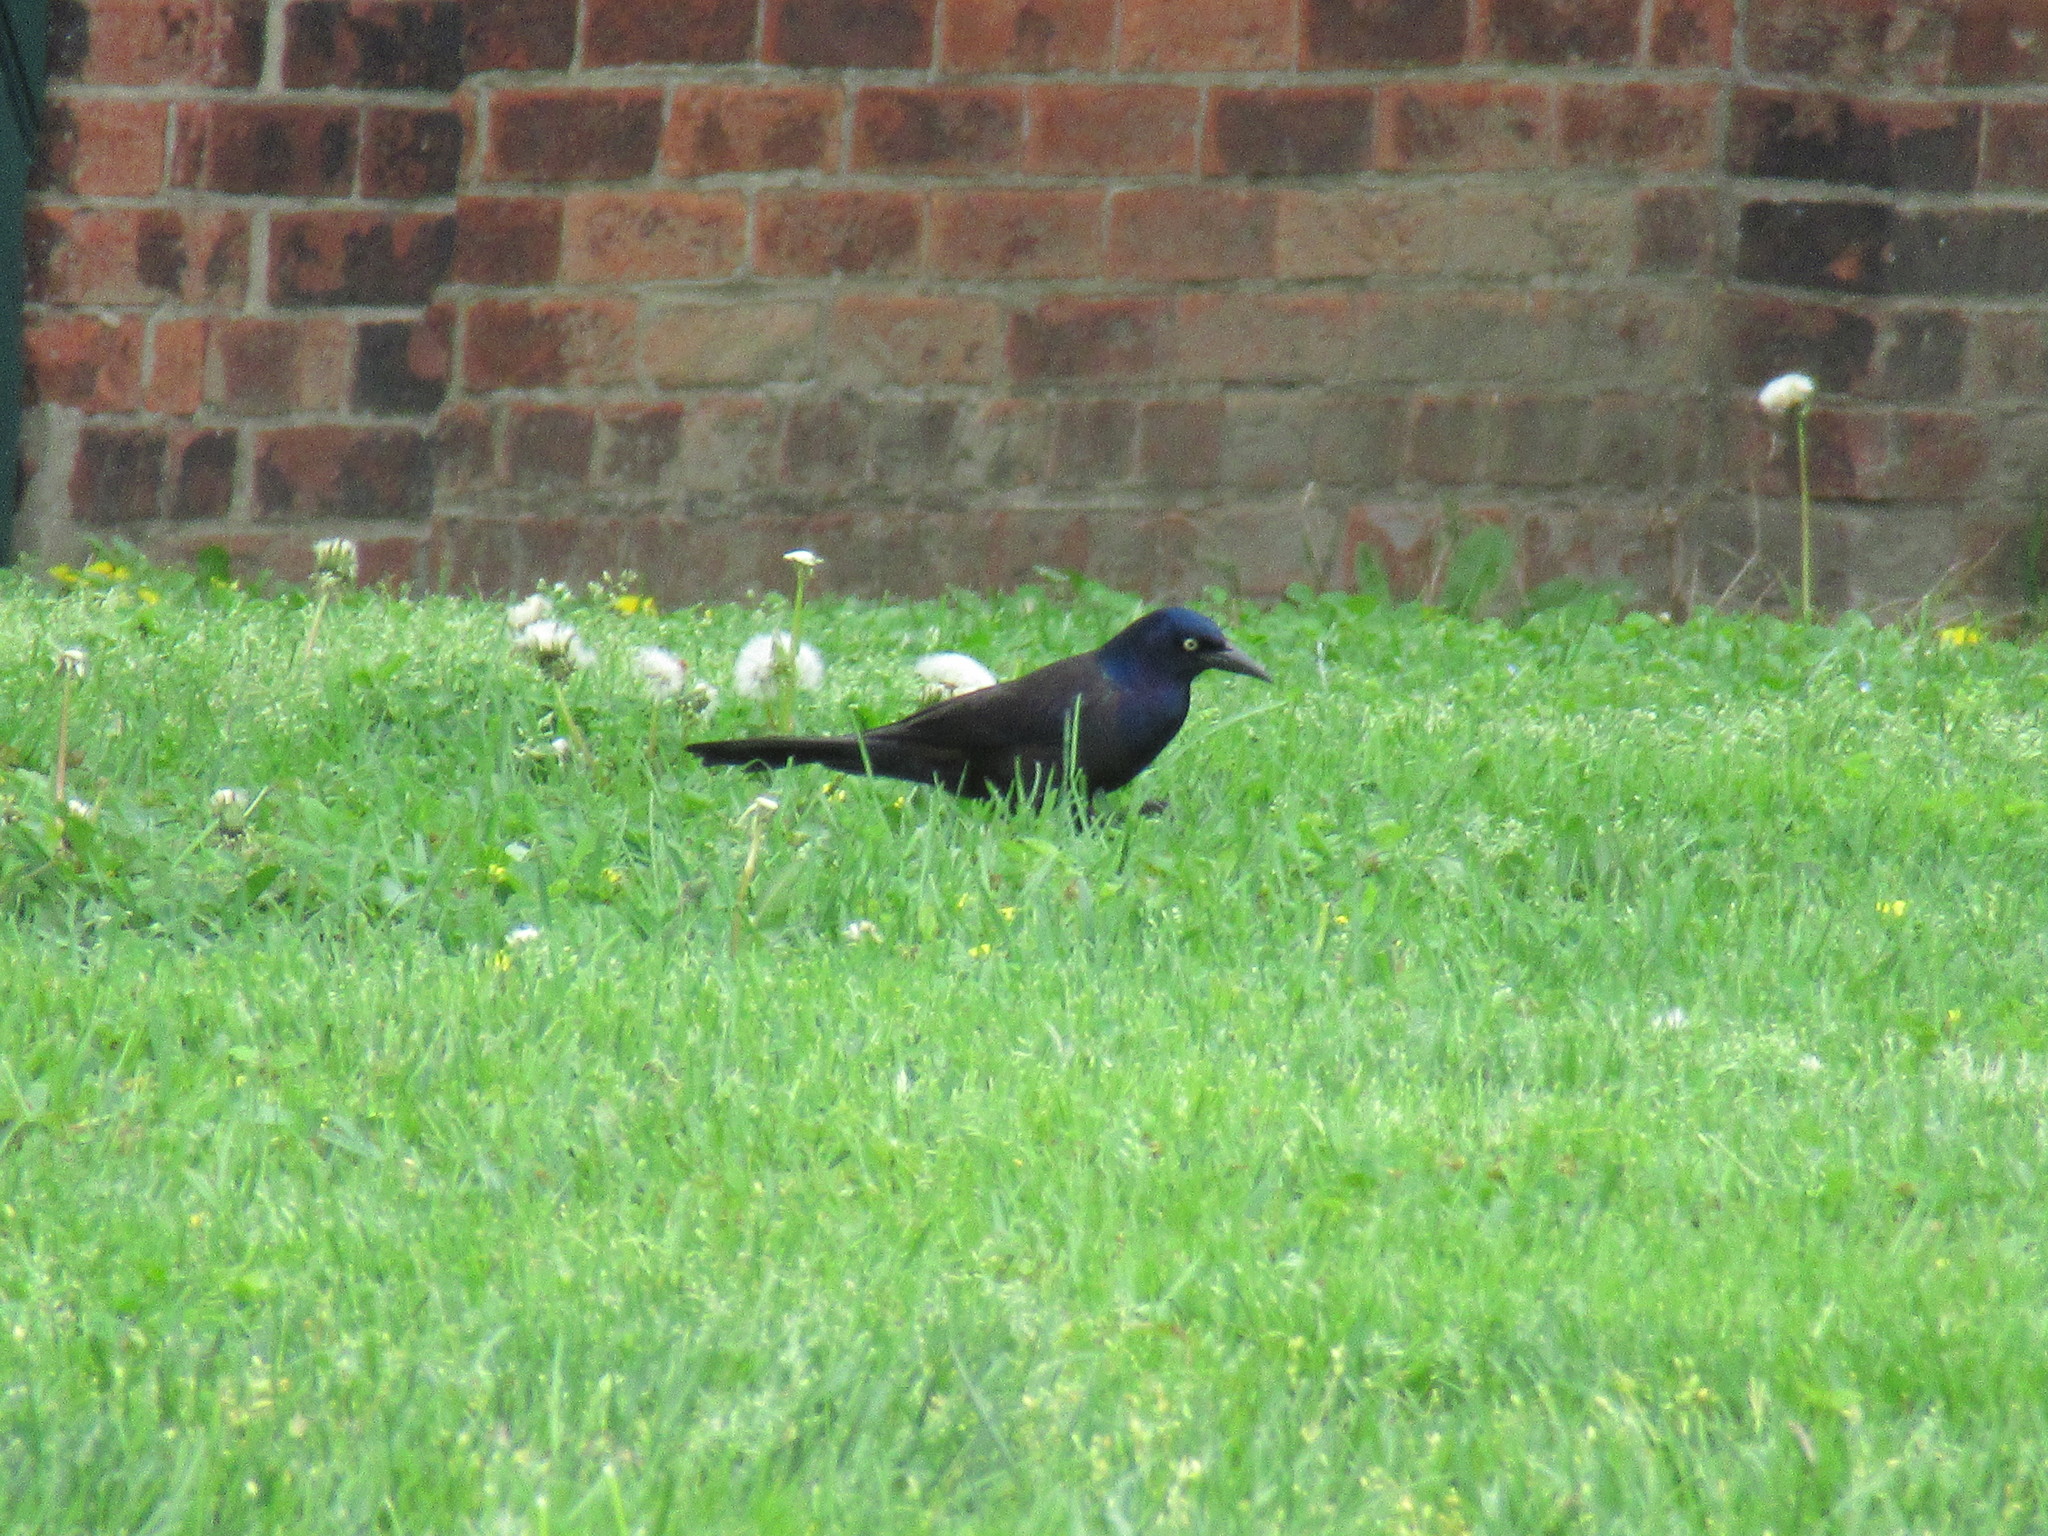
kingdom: Animalia
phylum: Chordata
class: Aves
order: Passeriformes
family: Icteridae
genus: Quiscalus
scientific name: Quiscalus quiscula
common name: Common grackle
